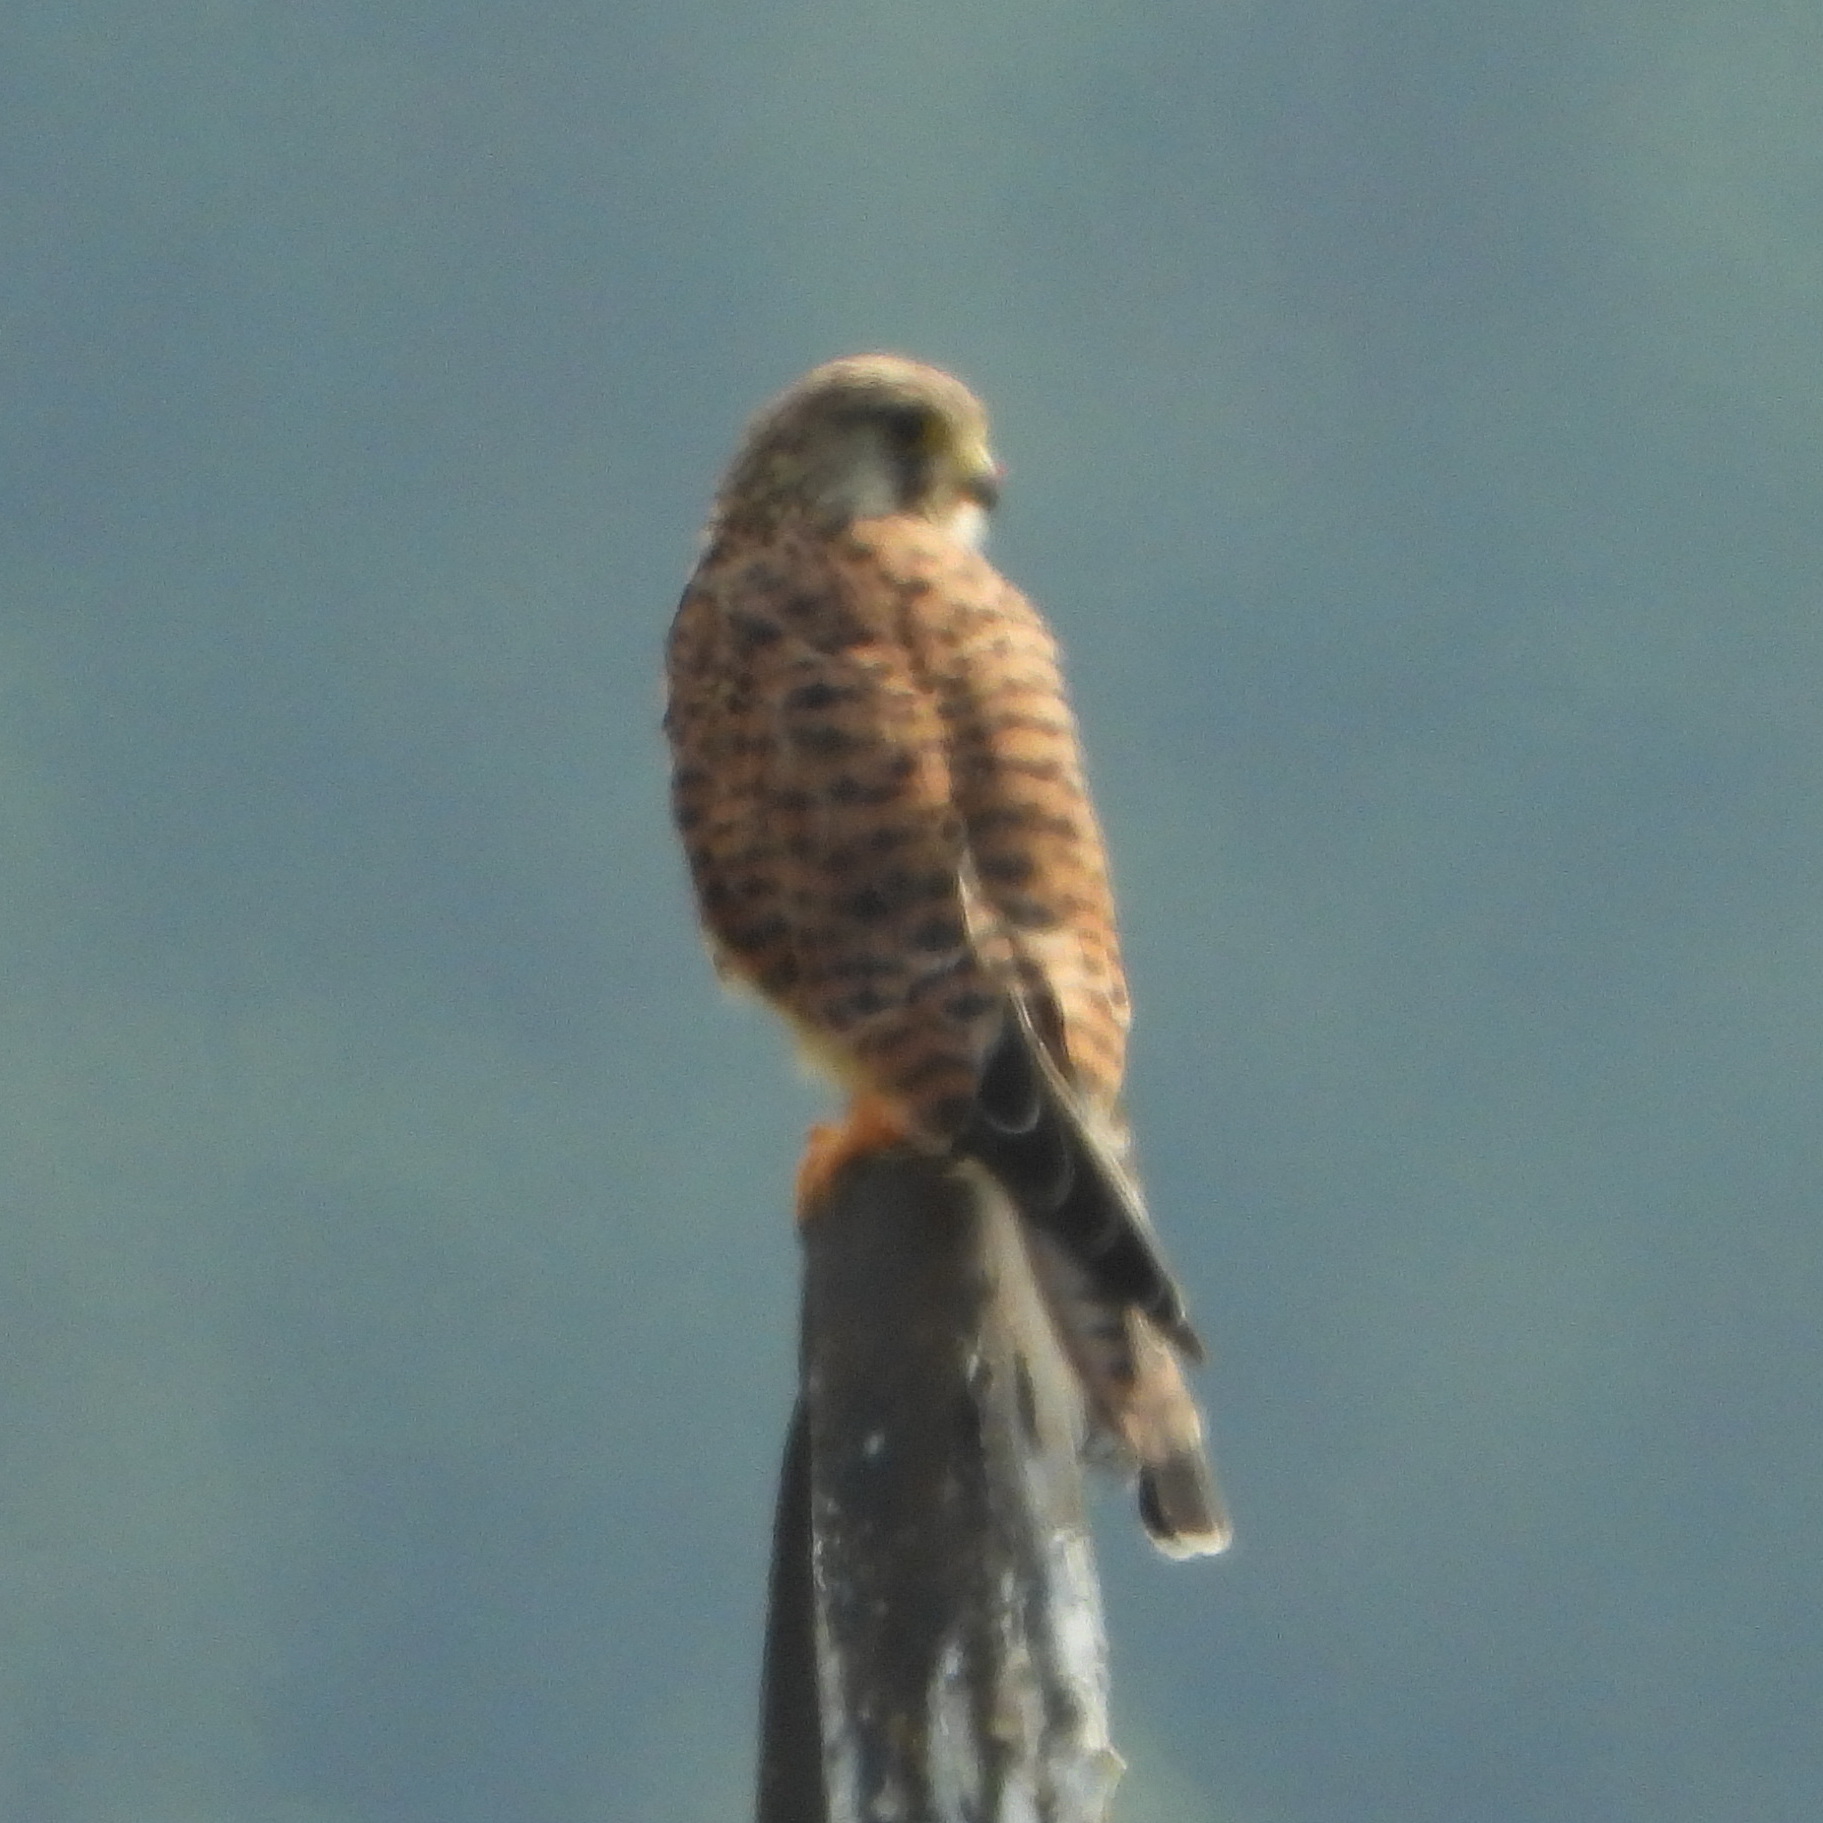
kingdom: Animalia
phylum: Chordata
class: Aves
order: Falconiformes
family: Falconidae
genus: Falco
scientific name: Falco tinnunculus
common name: Common kestrel
